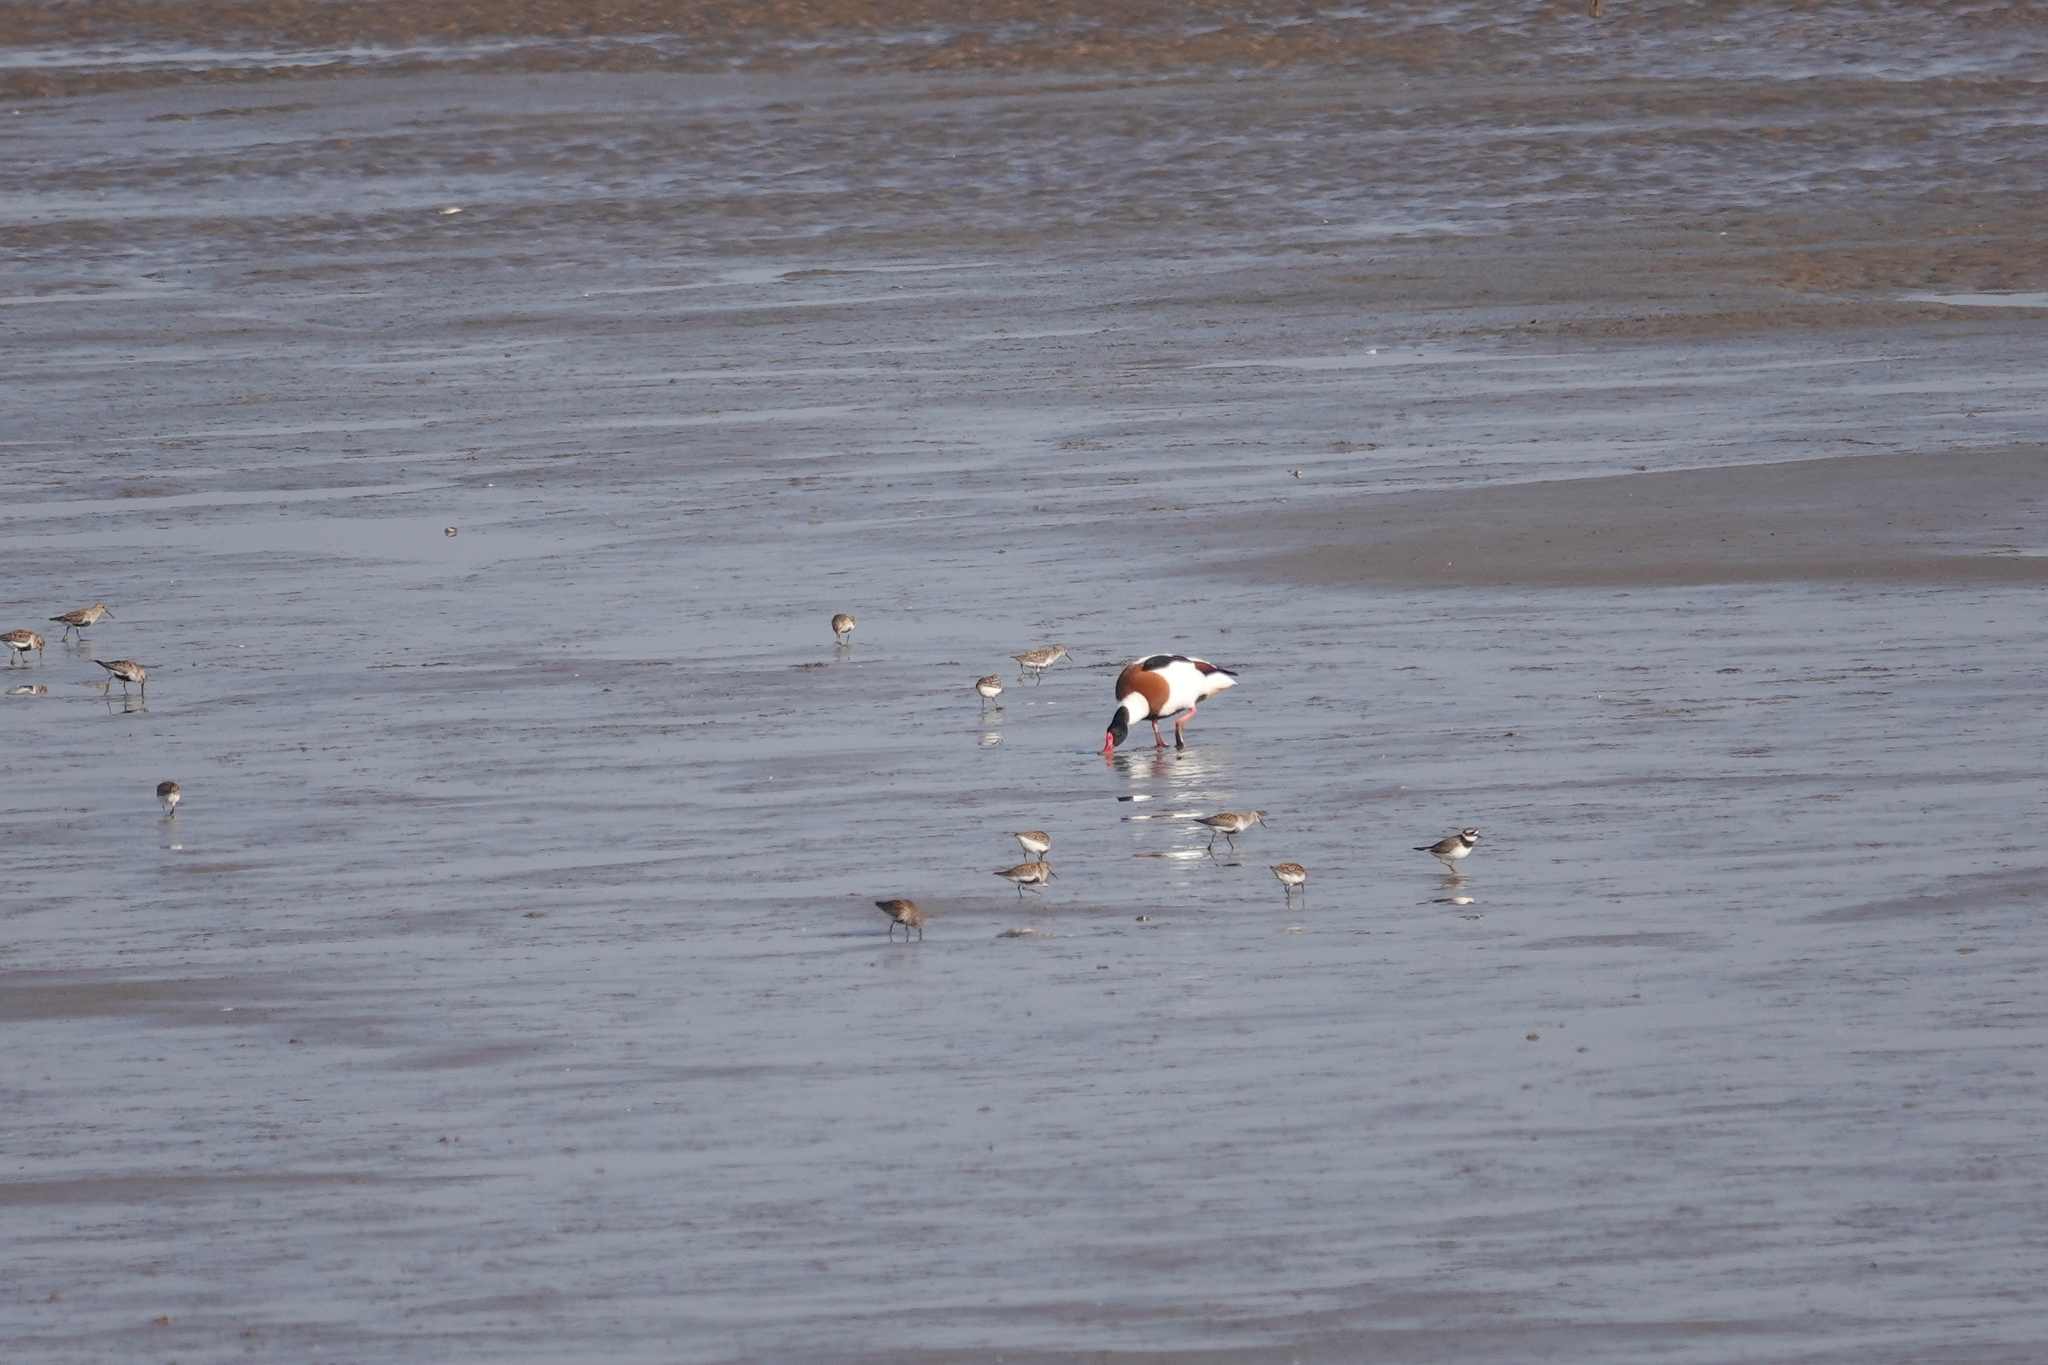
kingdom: Animalia
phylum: Chordata
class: Aves
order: Charadriiformes
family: Scolopacidae
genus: Calidris
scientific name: Calidris alpina
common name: Dunlin
